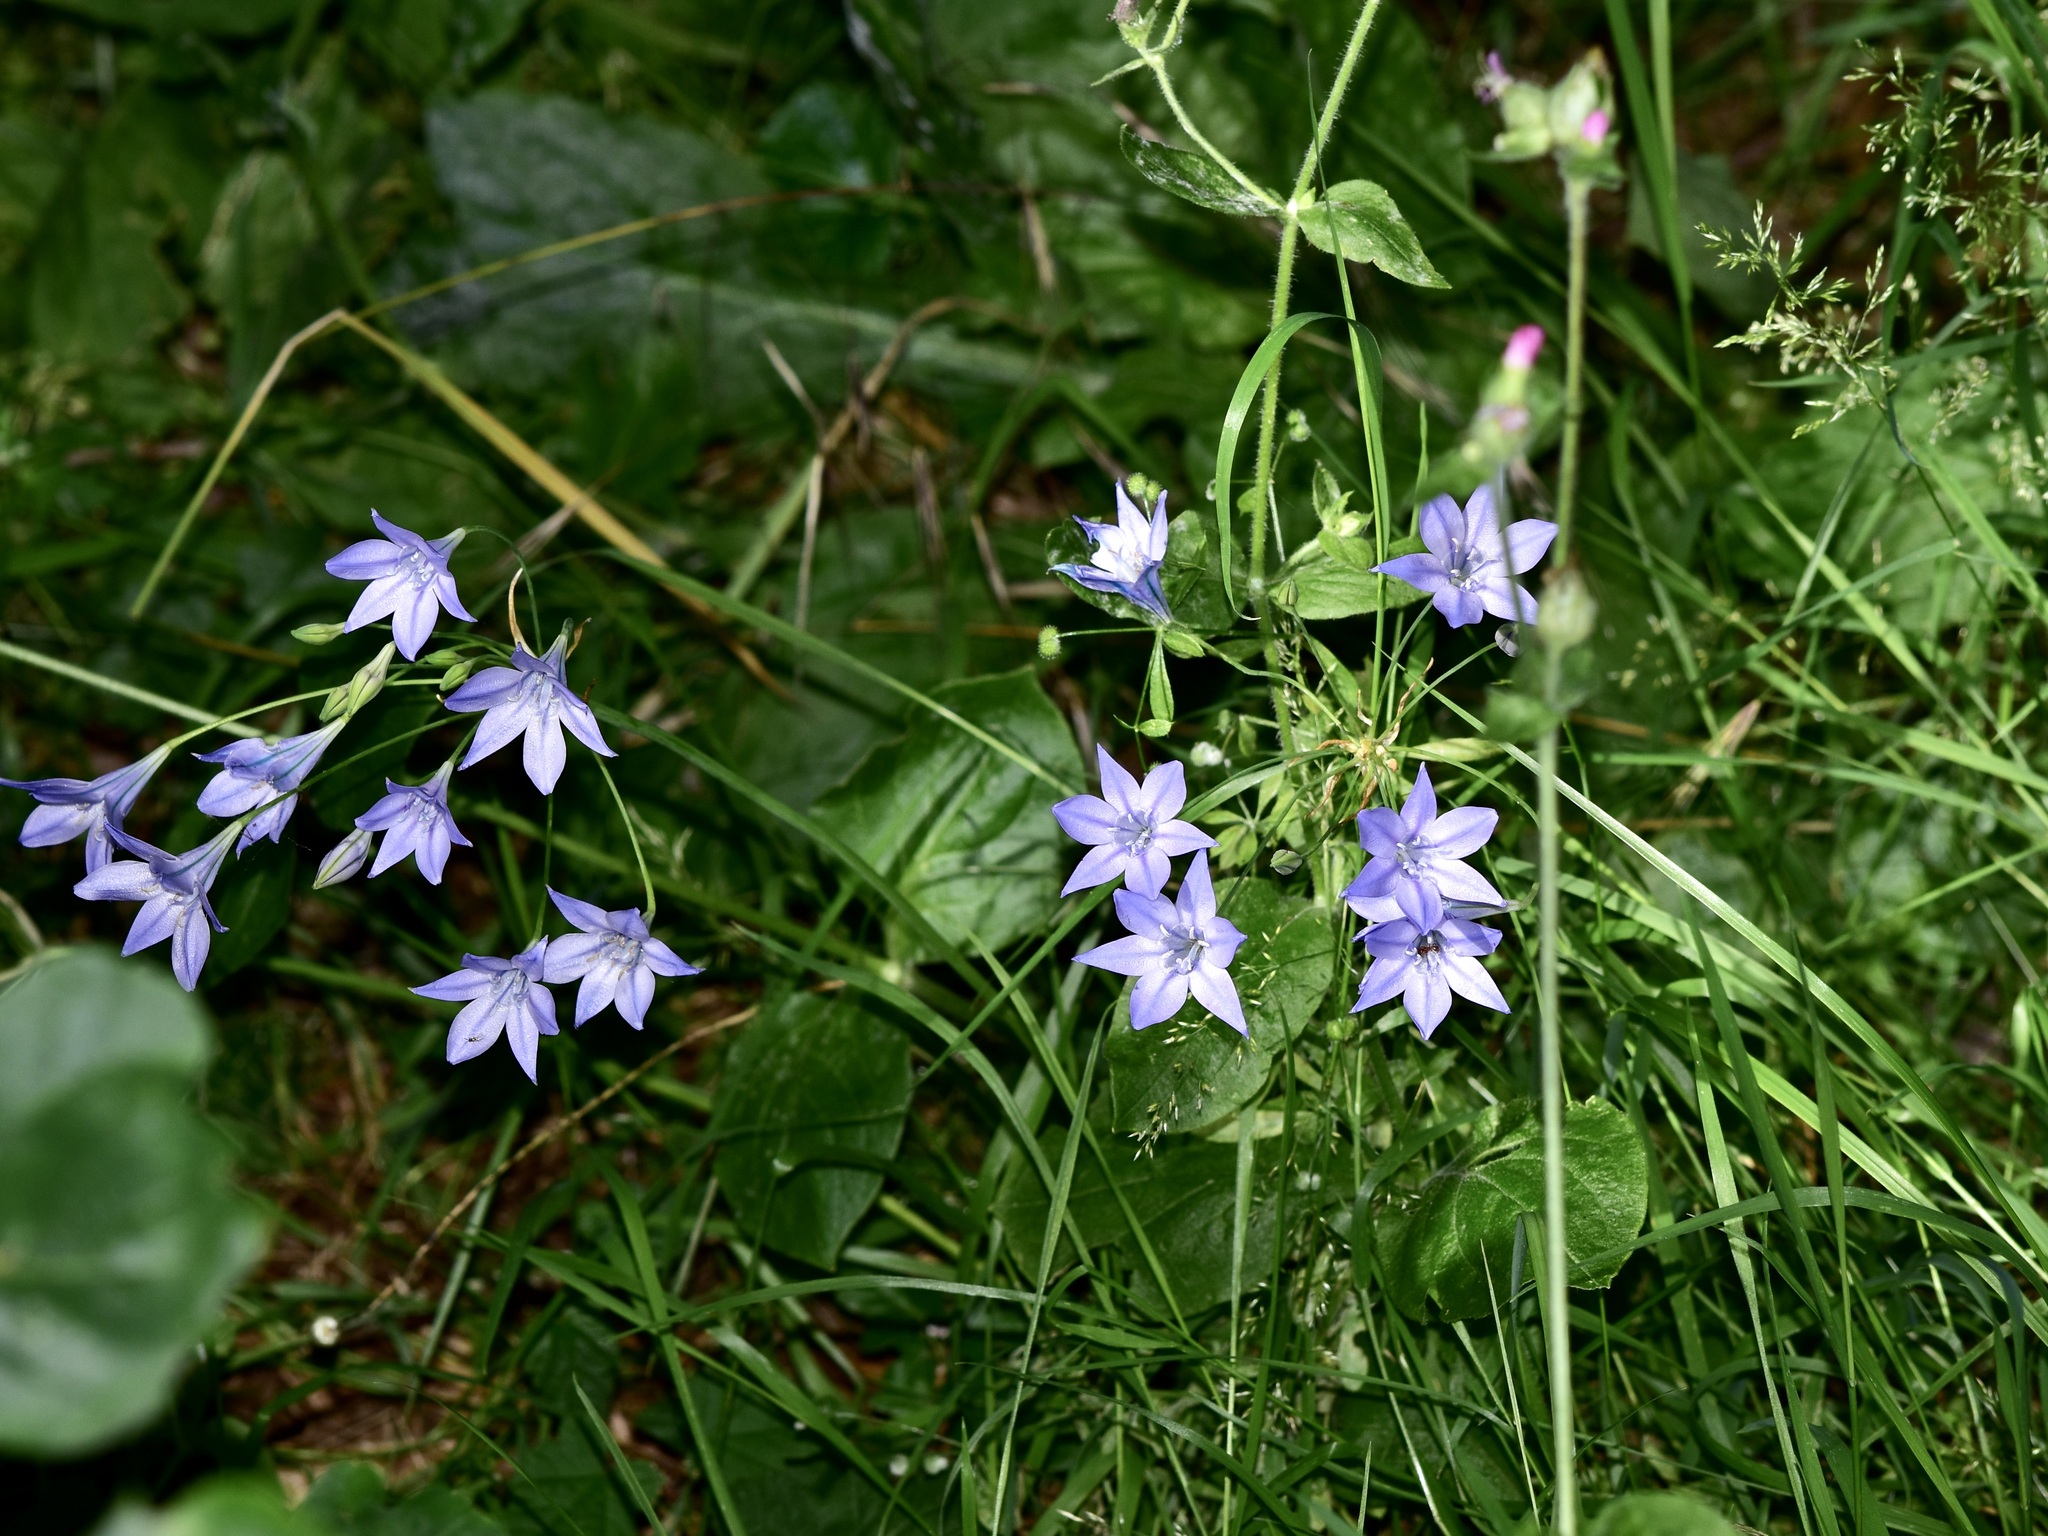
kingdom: Plantae
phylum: Tracheophyta
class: Liliopsida
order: Asparagales
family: Asparagaceae
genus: Triteleia
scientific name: Triteleia laxa
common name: Triplet-lily
